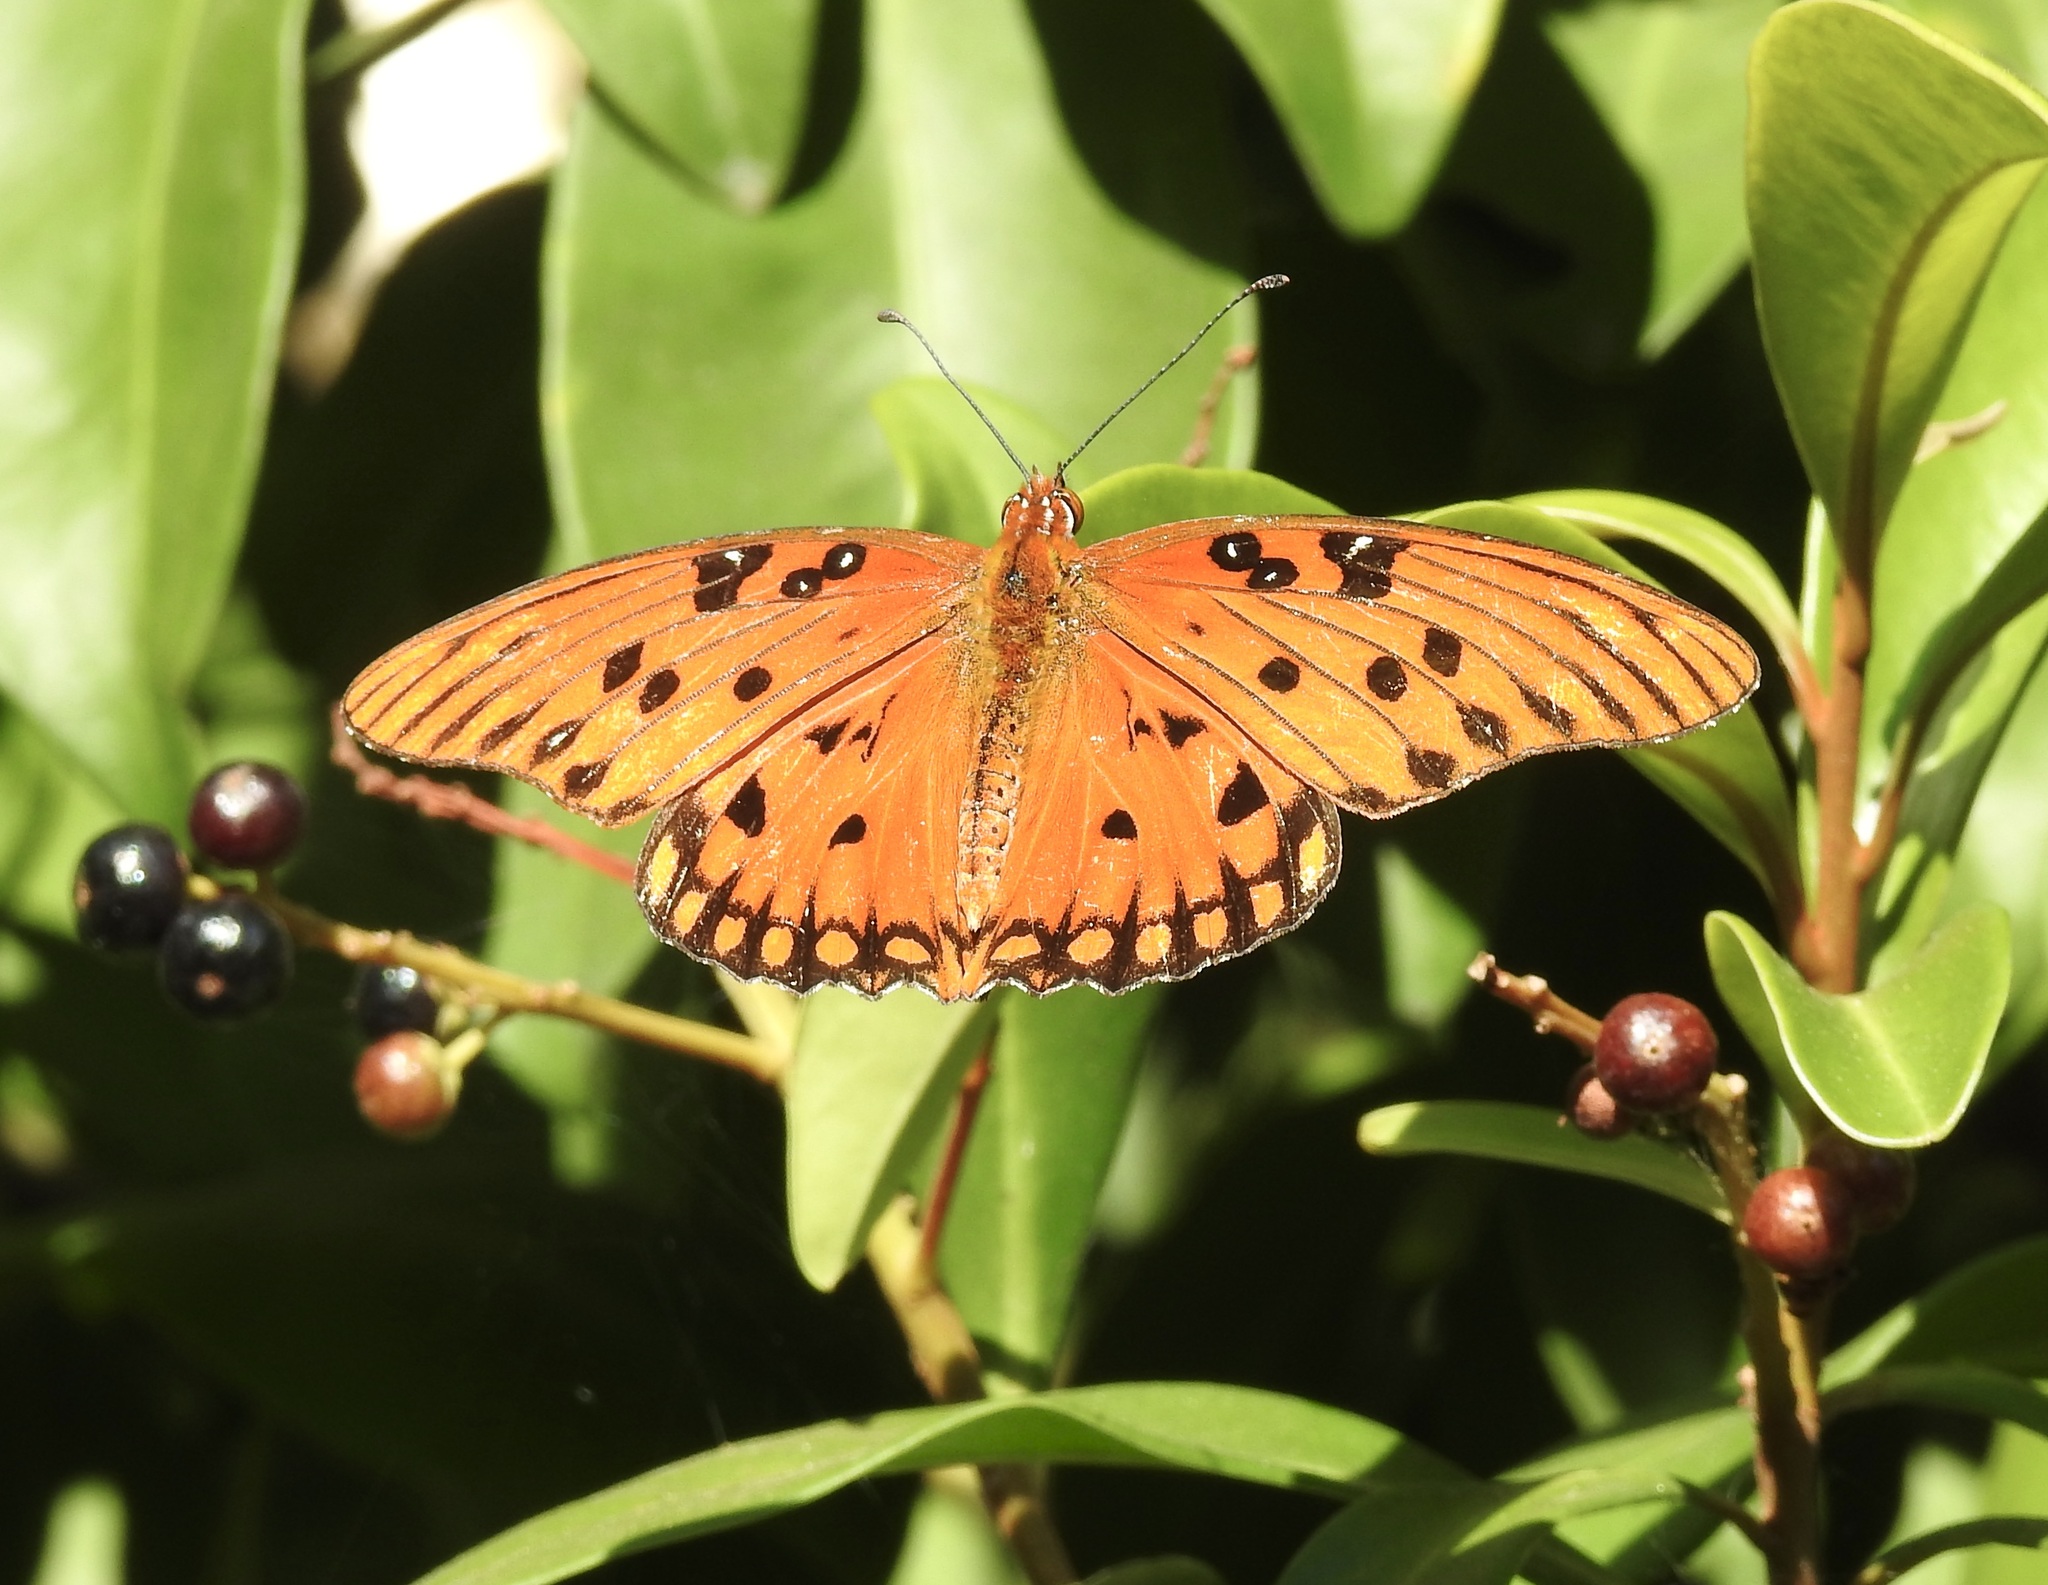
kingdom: Animalia
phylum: Arthropoda
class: Insecta
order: Lepidoptera
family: Nymphalidae
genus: Dione
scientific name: Dione vanillae
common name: Gulf fritillary
